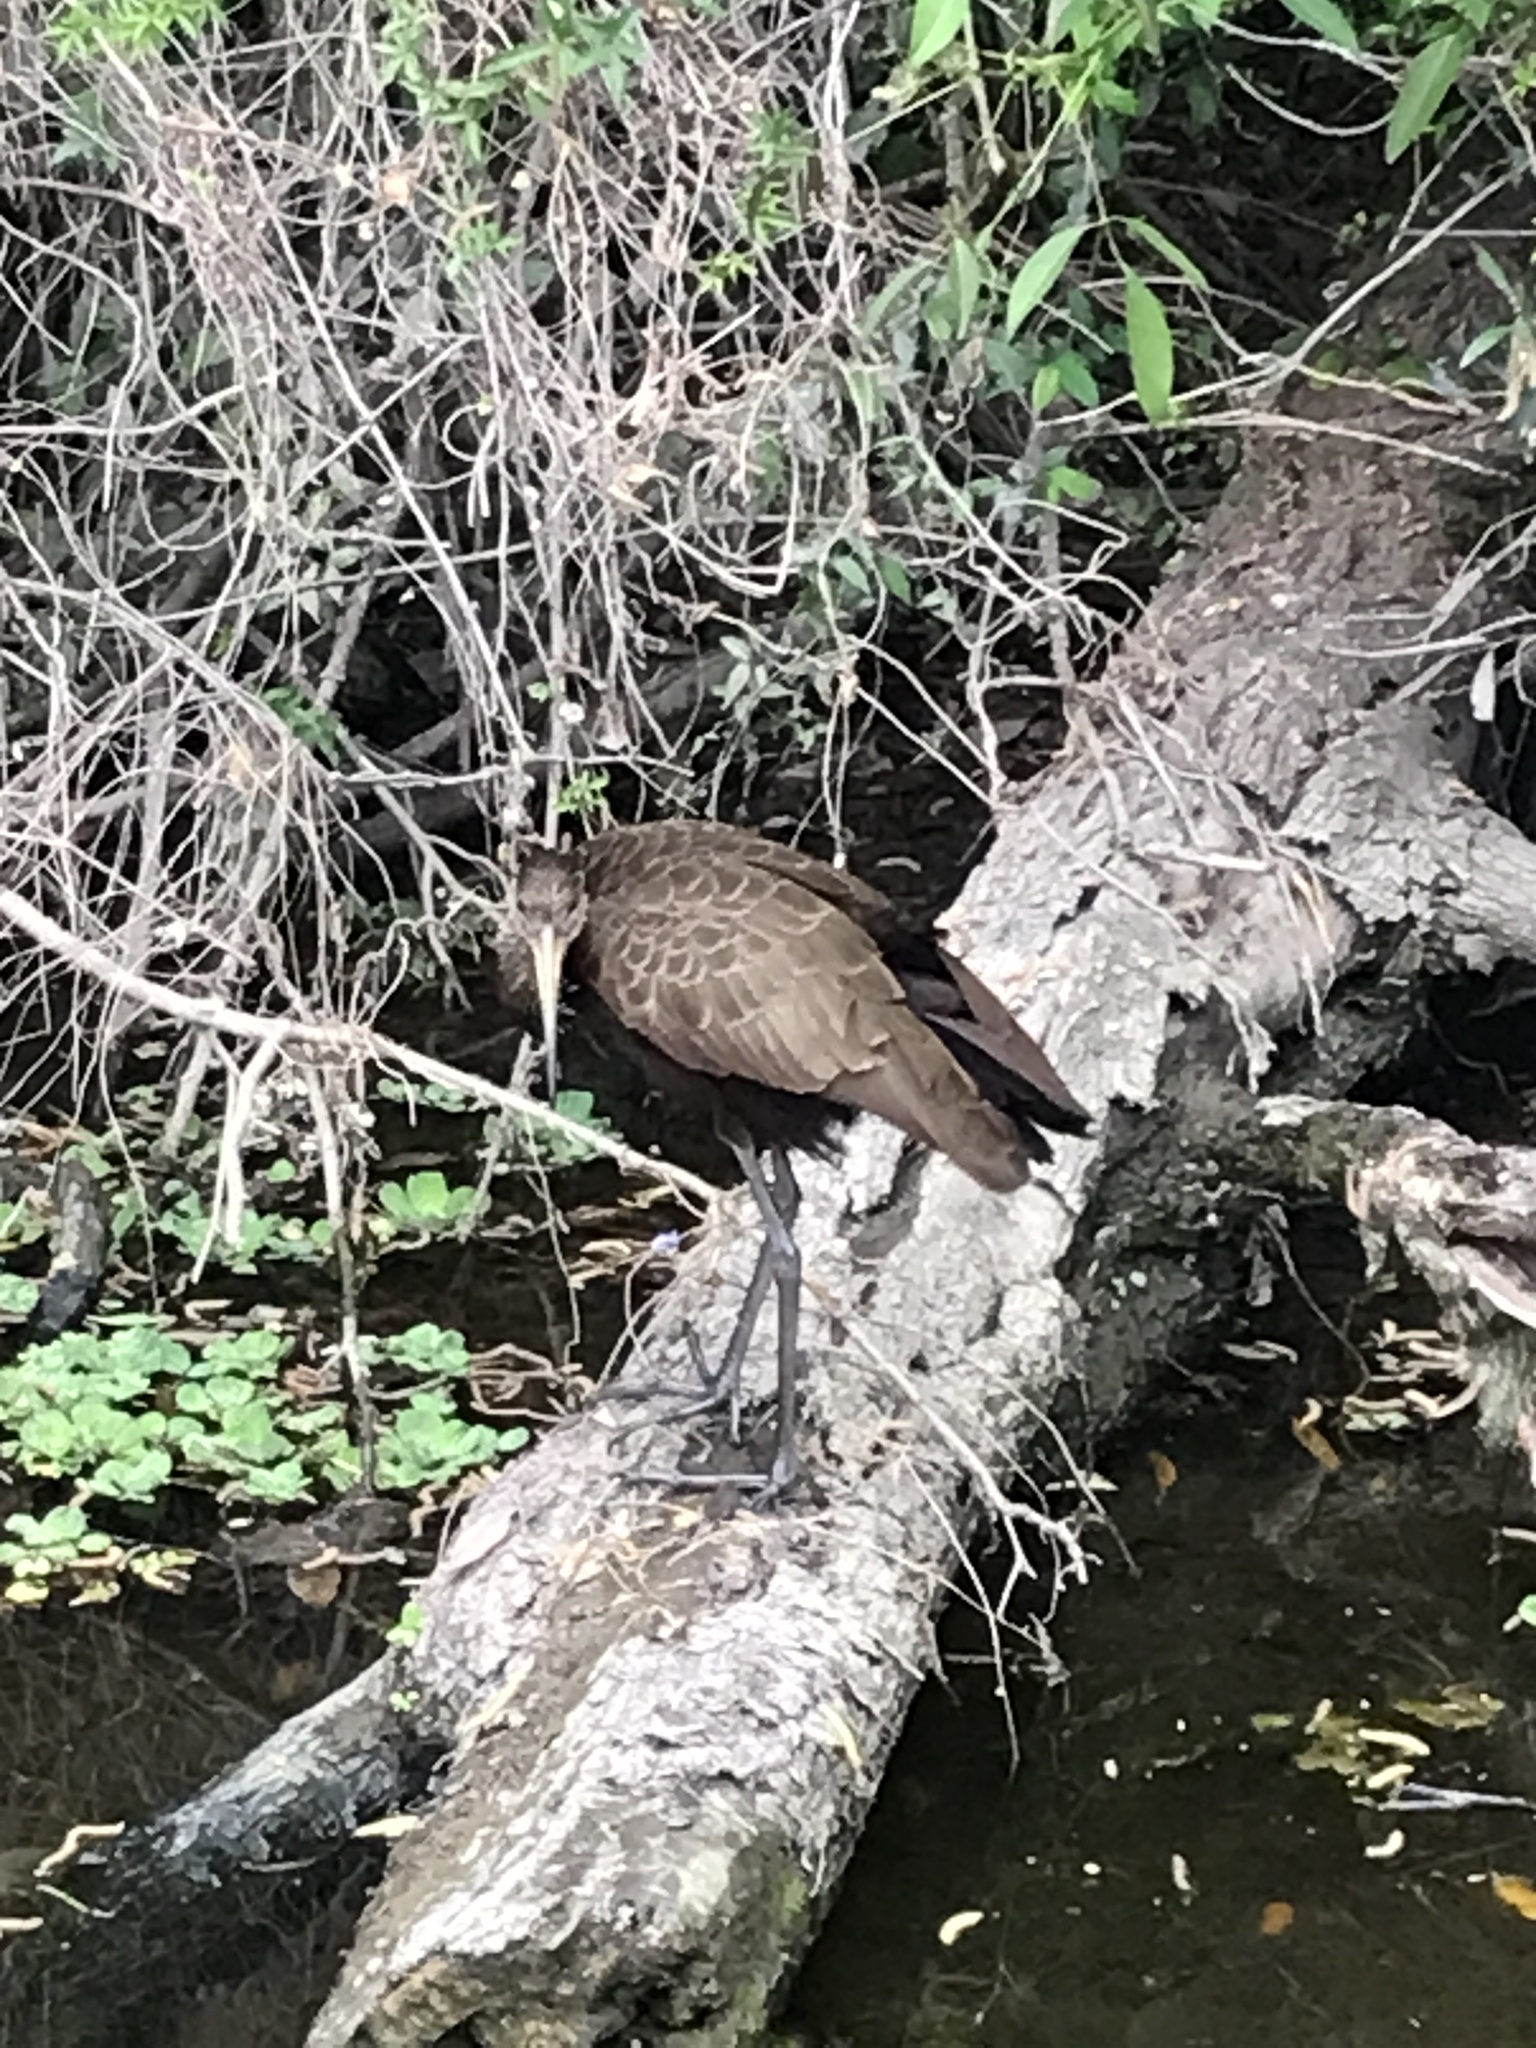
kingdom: Animalia
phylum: Chordata
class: Aves
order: Gruiformes
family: Aramidae
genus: Aramus
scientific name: Aramus guarauna
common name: Limpkin
